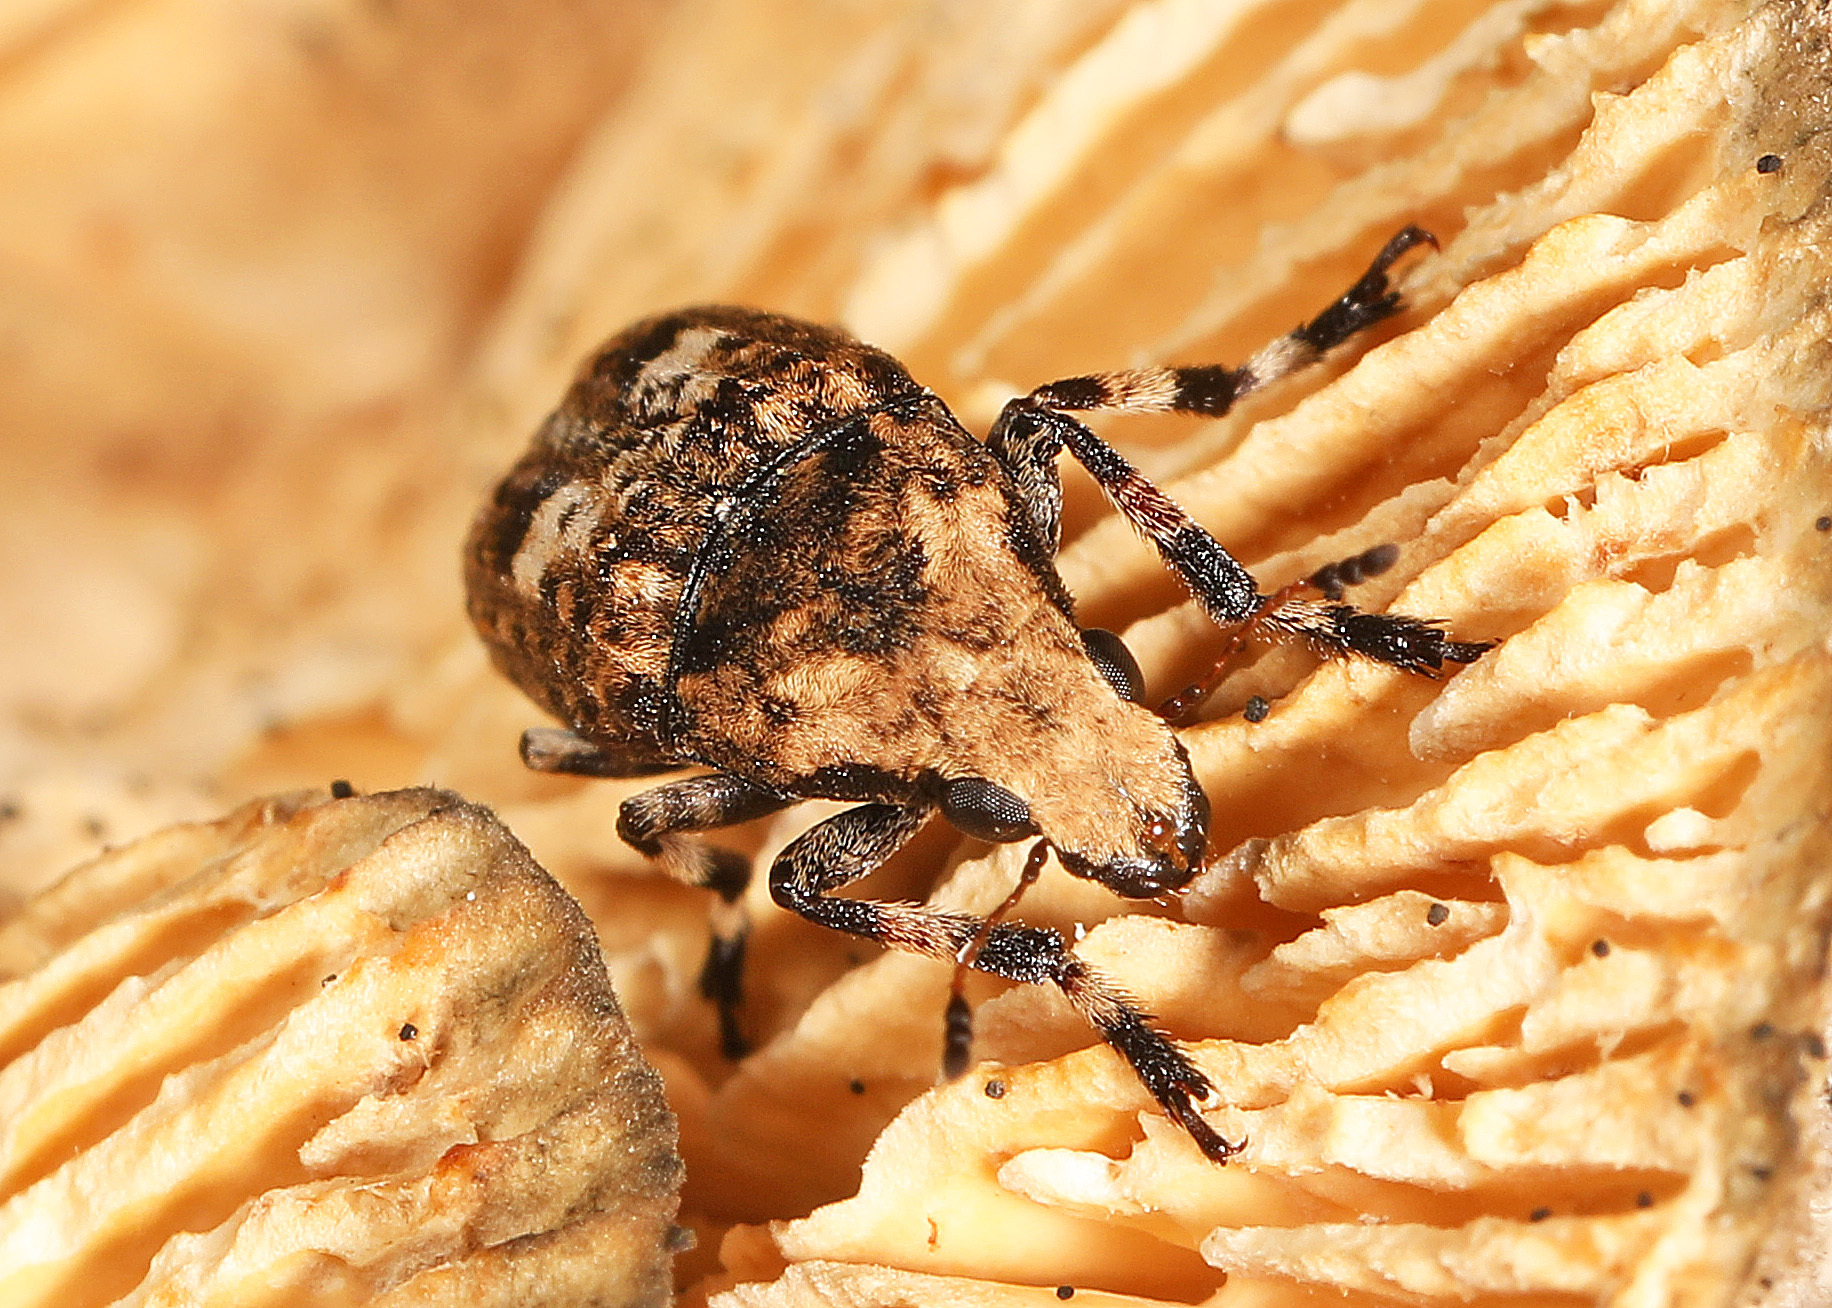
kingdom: Animalia
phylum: Arthropoda
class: Insecta
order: Coleoptera
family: Anthribidae
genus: Euparius
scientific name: Euparius marmoreus
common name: Marbled fungus weevil
